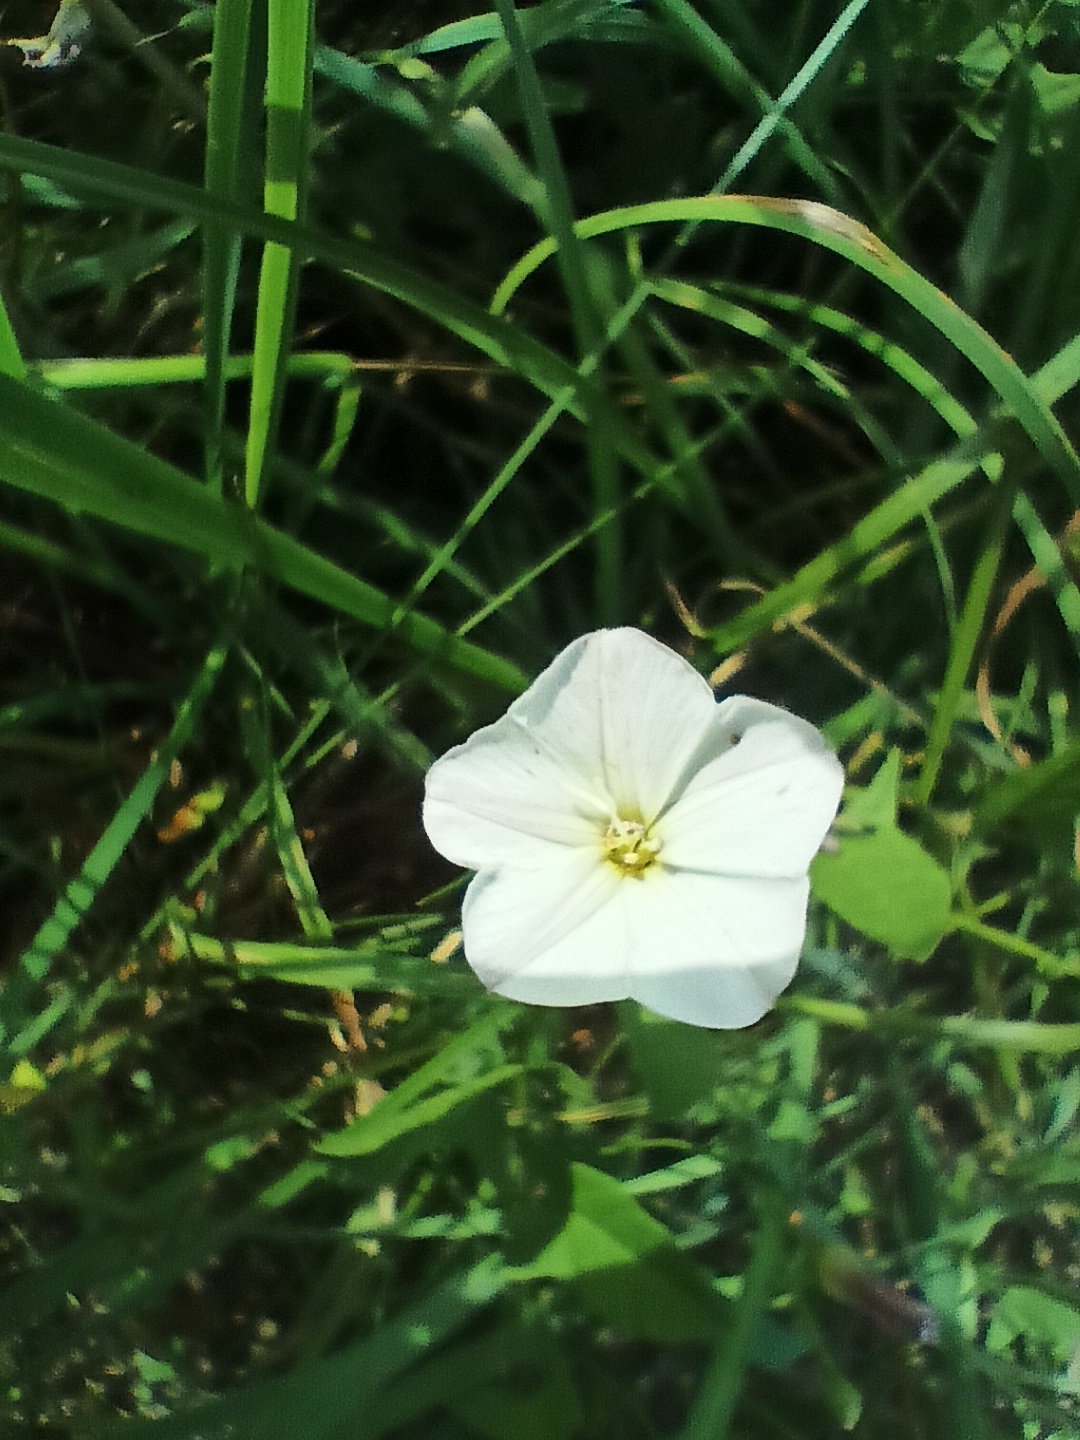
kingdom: Plantae
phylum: Tracheophyta
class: Magnoliopsida
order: Solanales
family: Convolvulaceae
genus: Convolvulus
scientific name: Convolvulus arvensis
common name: Field bindweed
